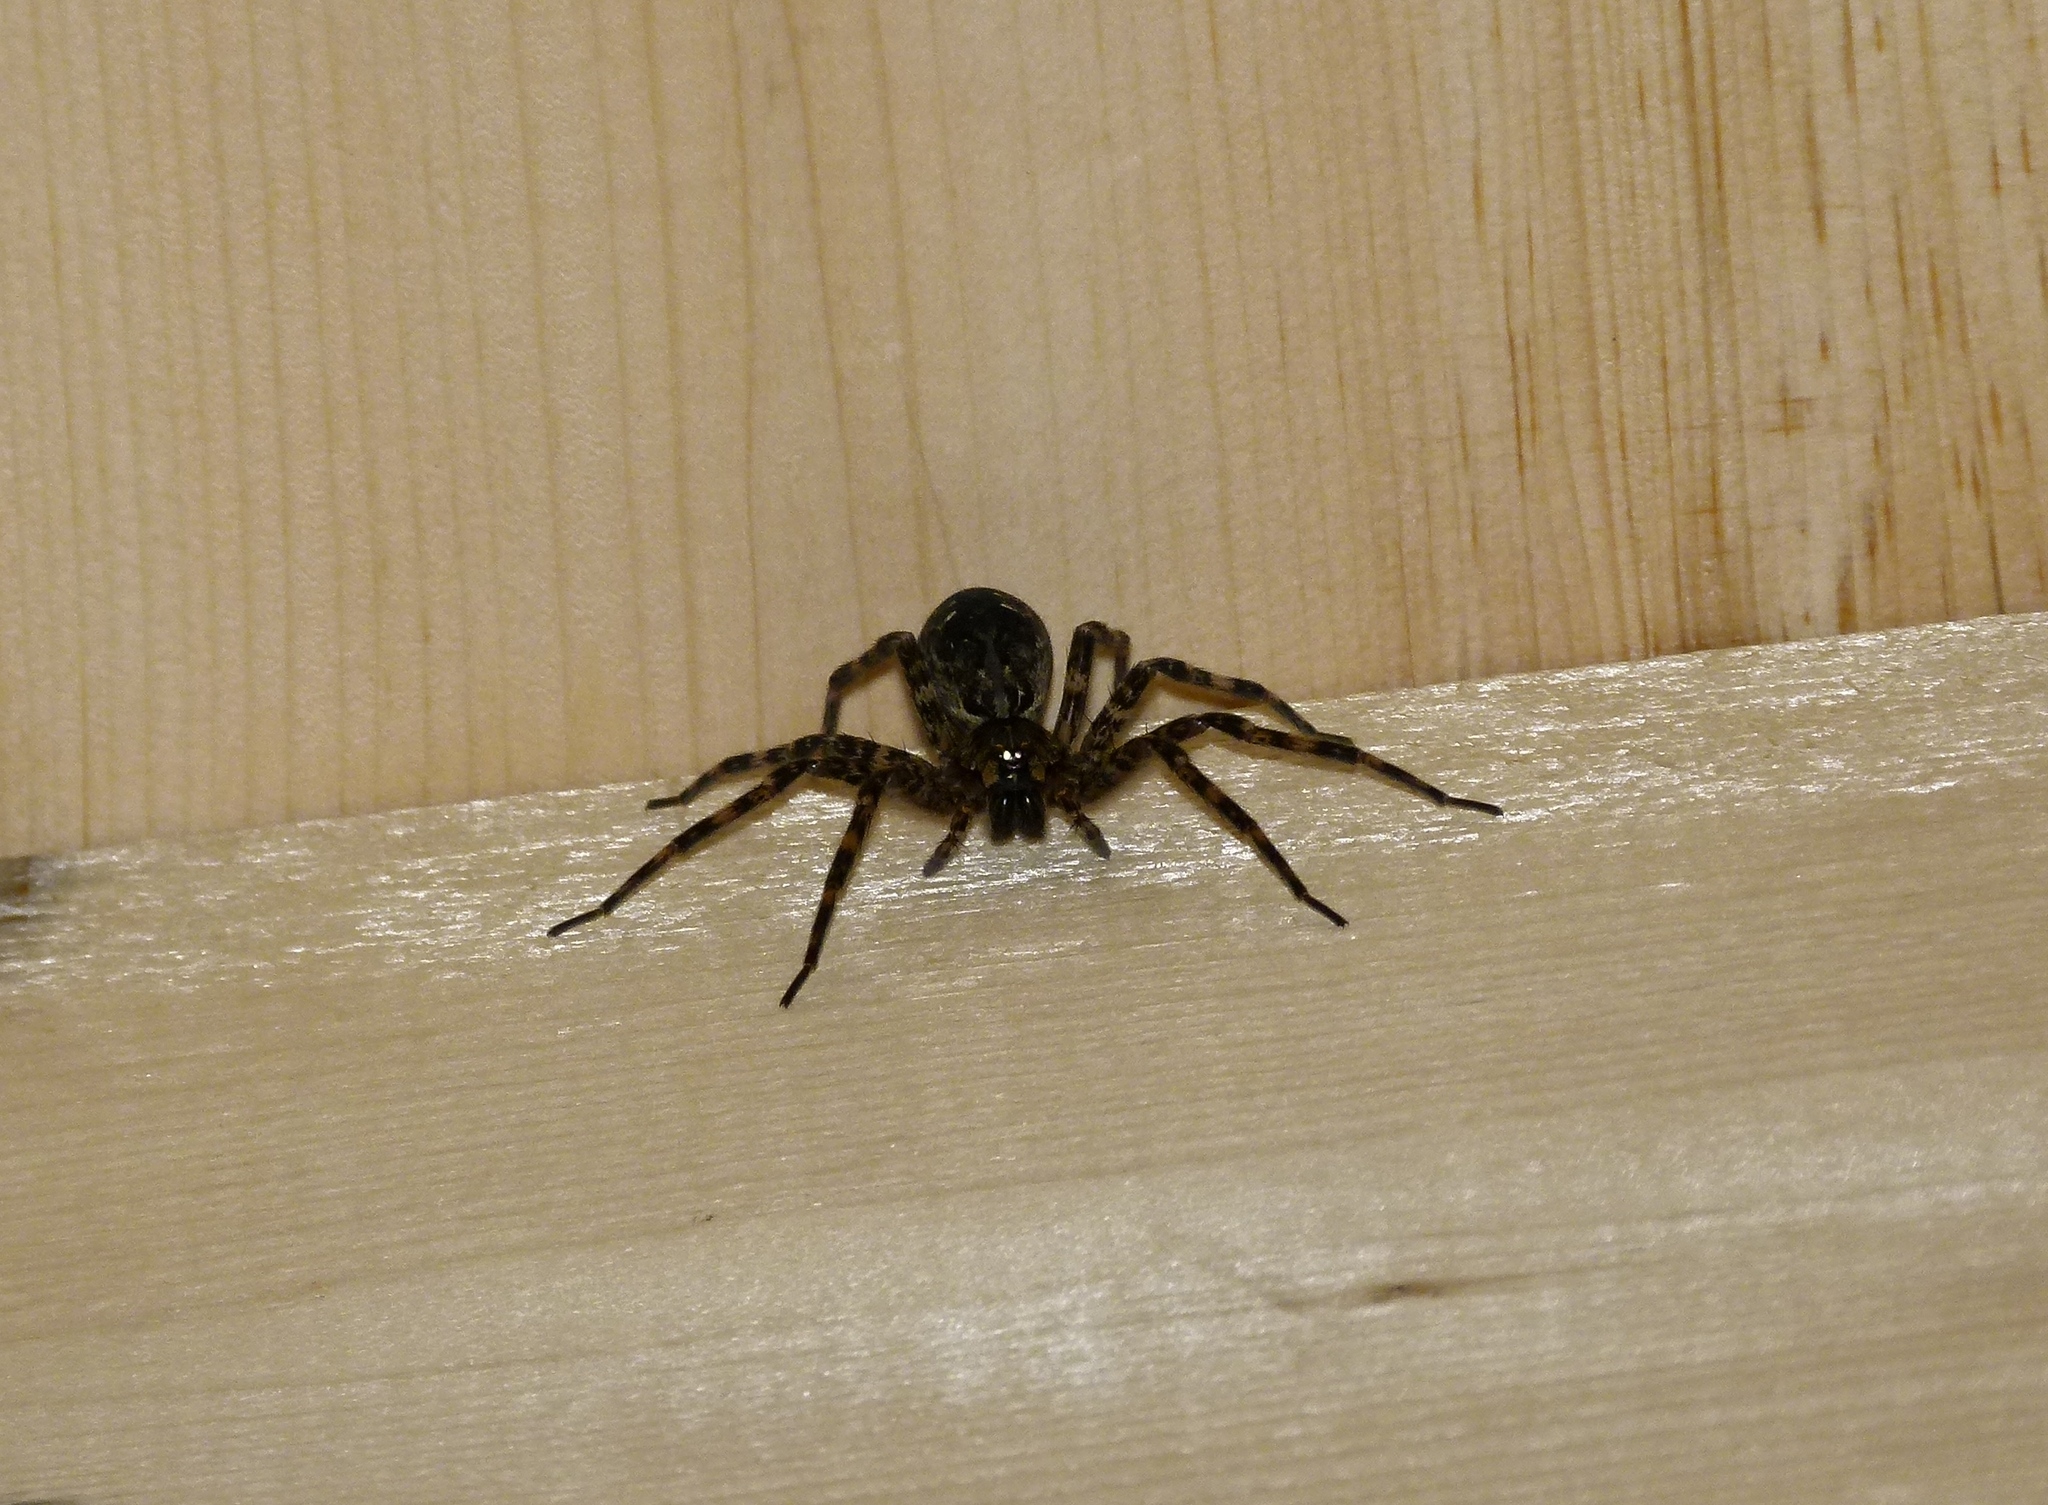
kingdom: Animalia
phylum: Arthropoda
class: Arachnida
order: Araneae
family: Pisauridae
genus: Dolomedes
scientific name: Dolomedes tenebrosus
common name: Dark fishing spider
